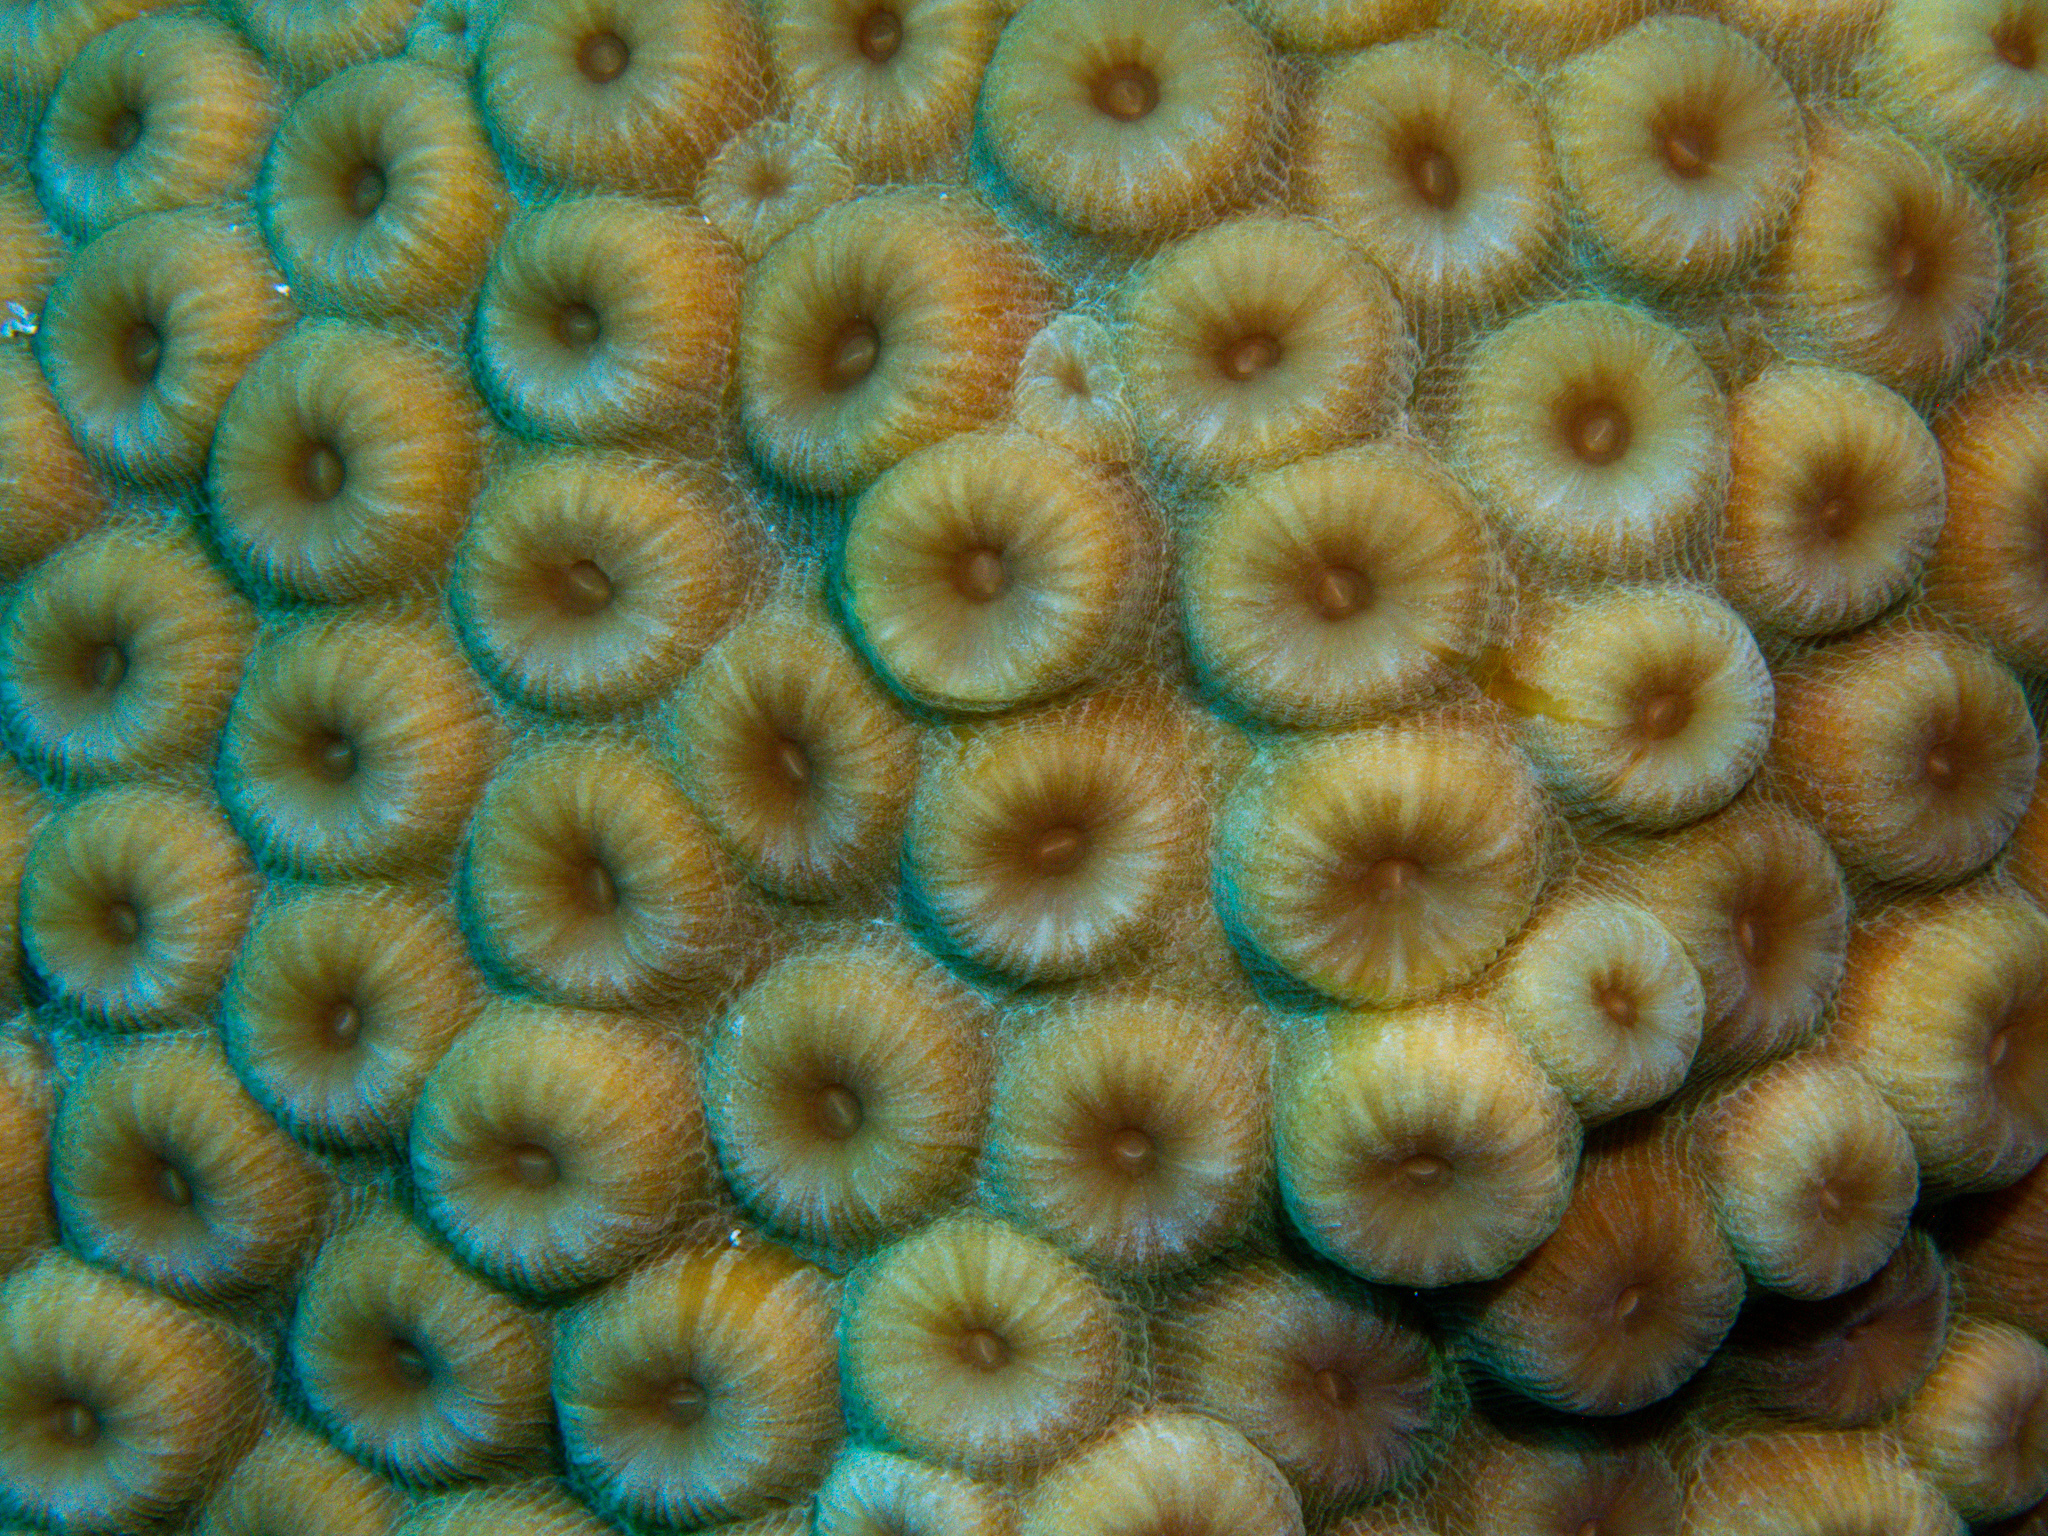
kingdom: Animalia
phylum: Cnidaria
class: Anthozoa
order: Scleractinia
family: Montastraeidae
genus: Montastraea
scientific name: Montastraea cavernosa
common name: Great star coral
